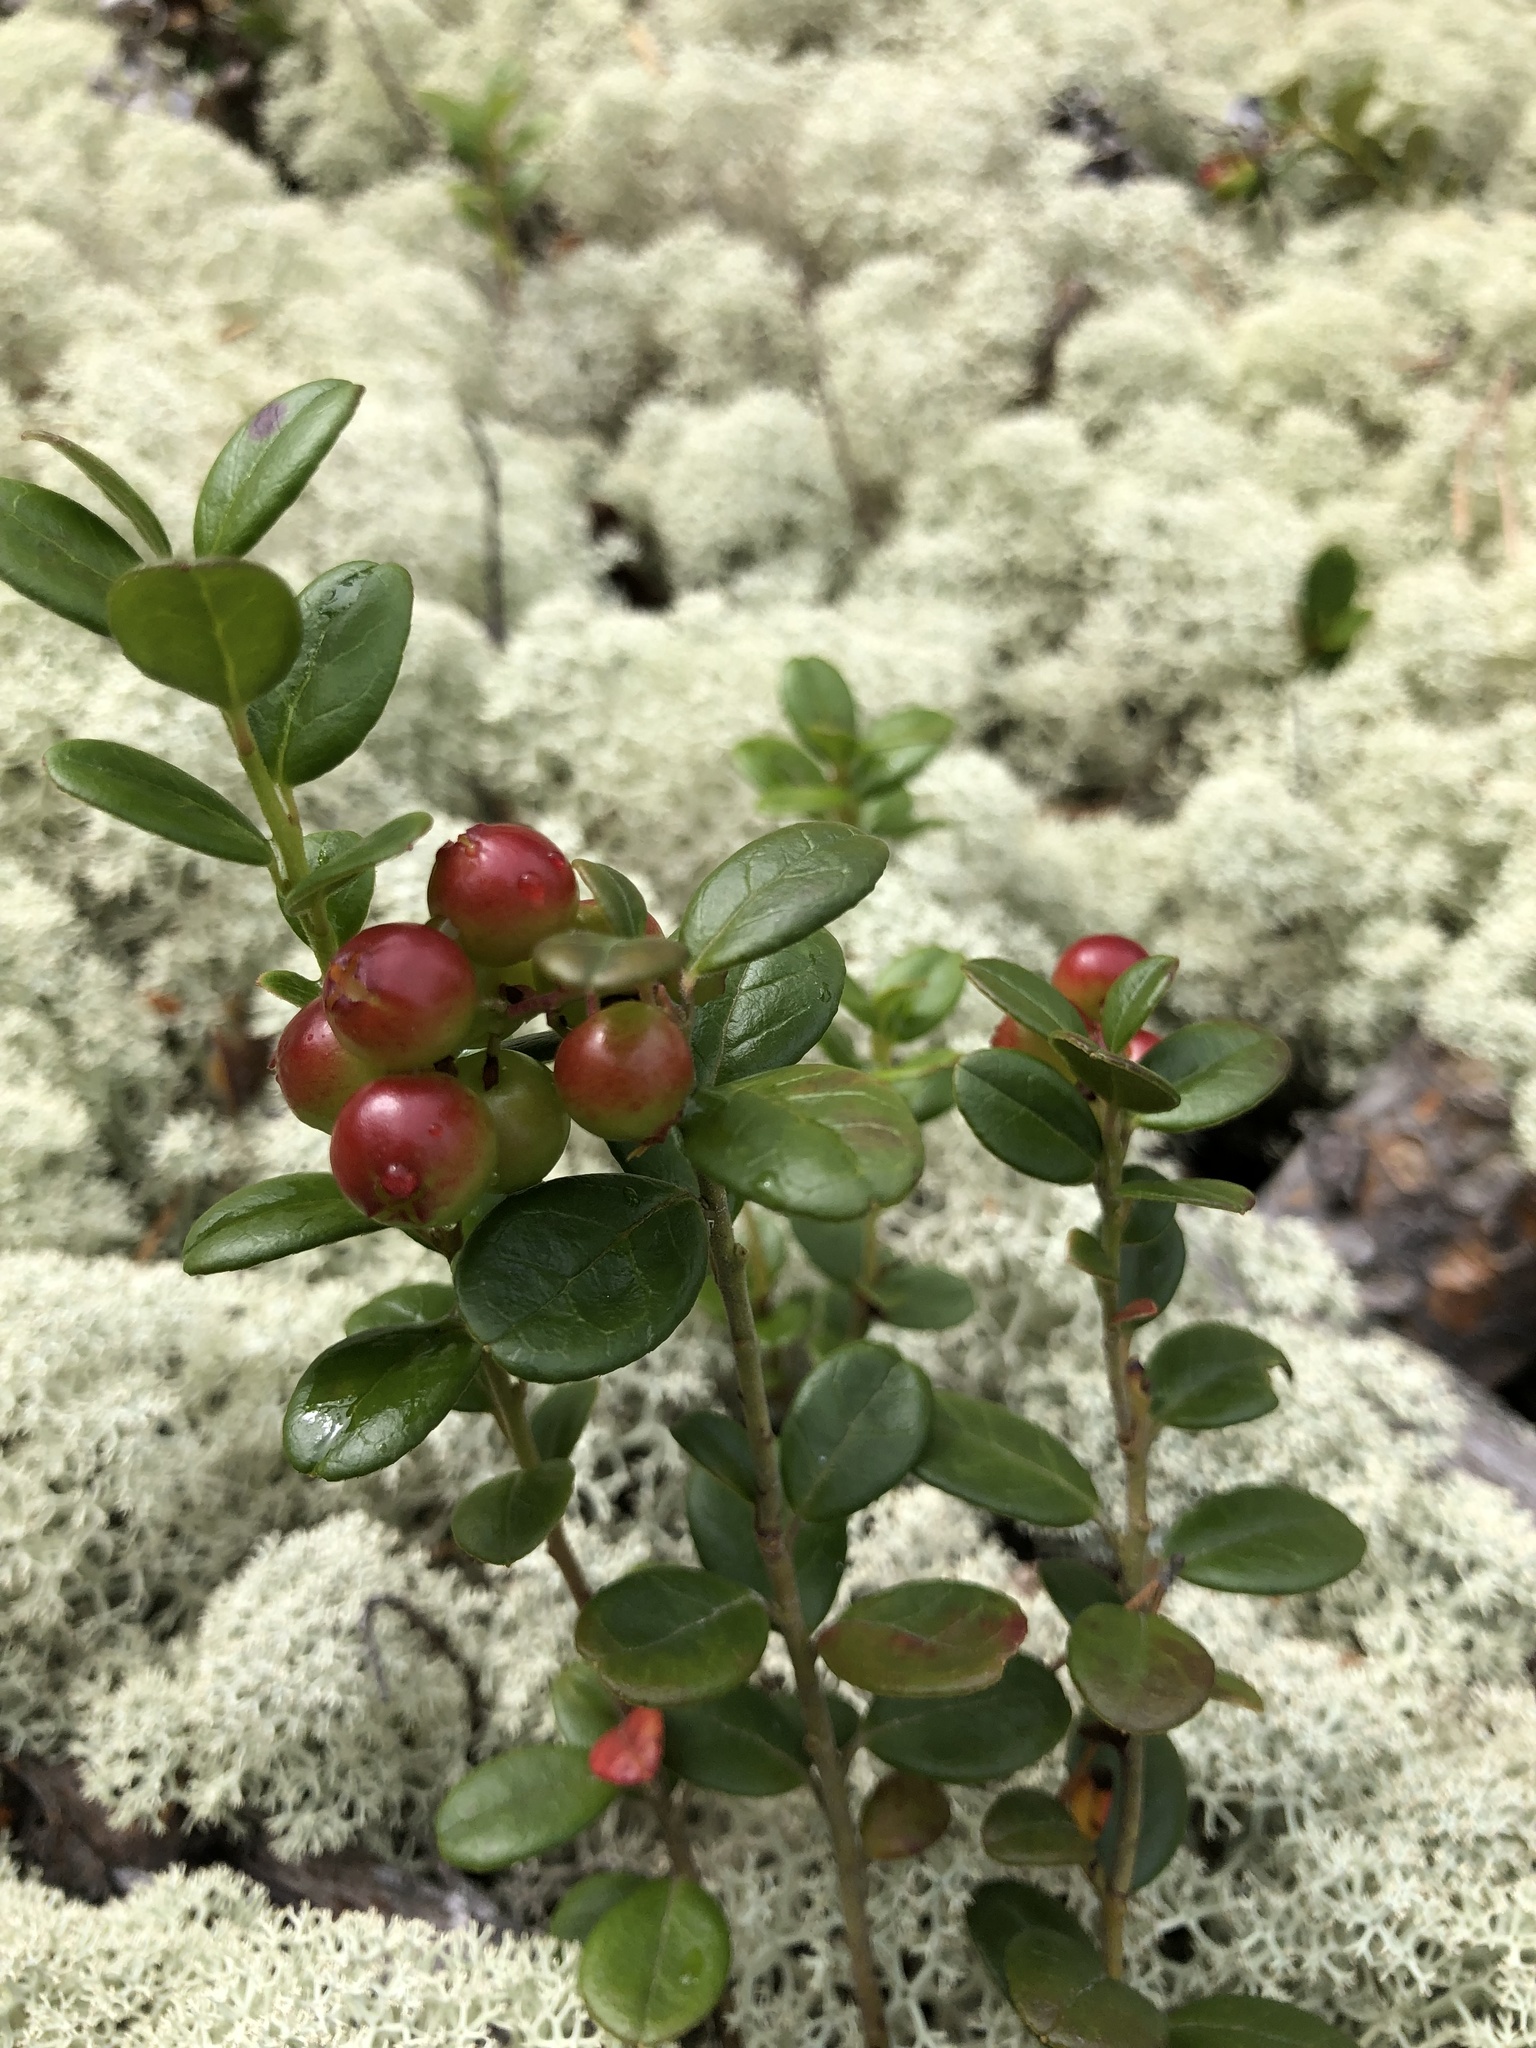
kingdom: Plantae
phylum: Tracheophyta
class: Magnoliopsida
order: Ericales
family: Ericaceae
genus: Vaccinium
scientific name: Vaccinium vitis-idaea
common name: Cowberry
